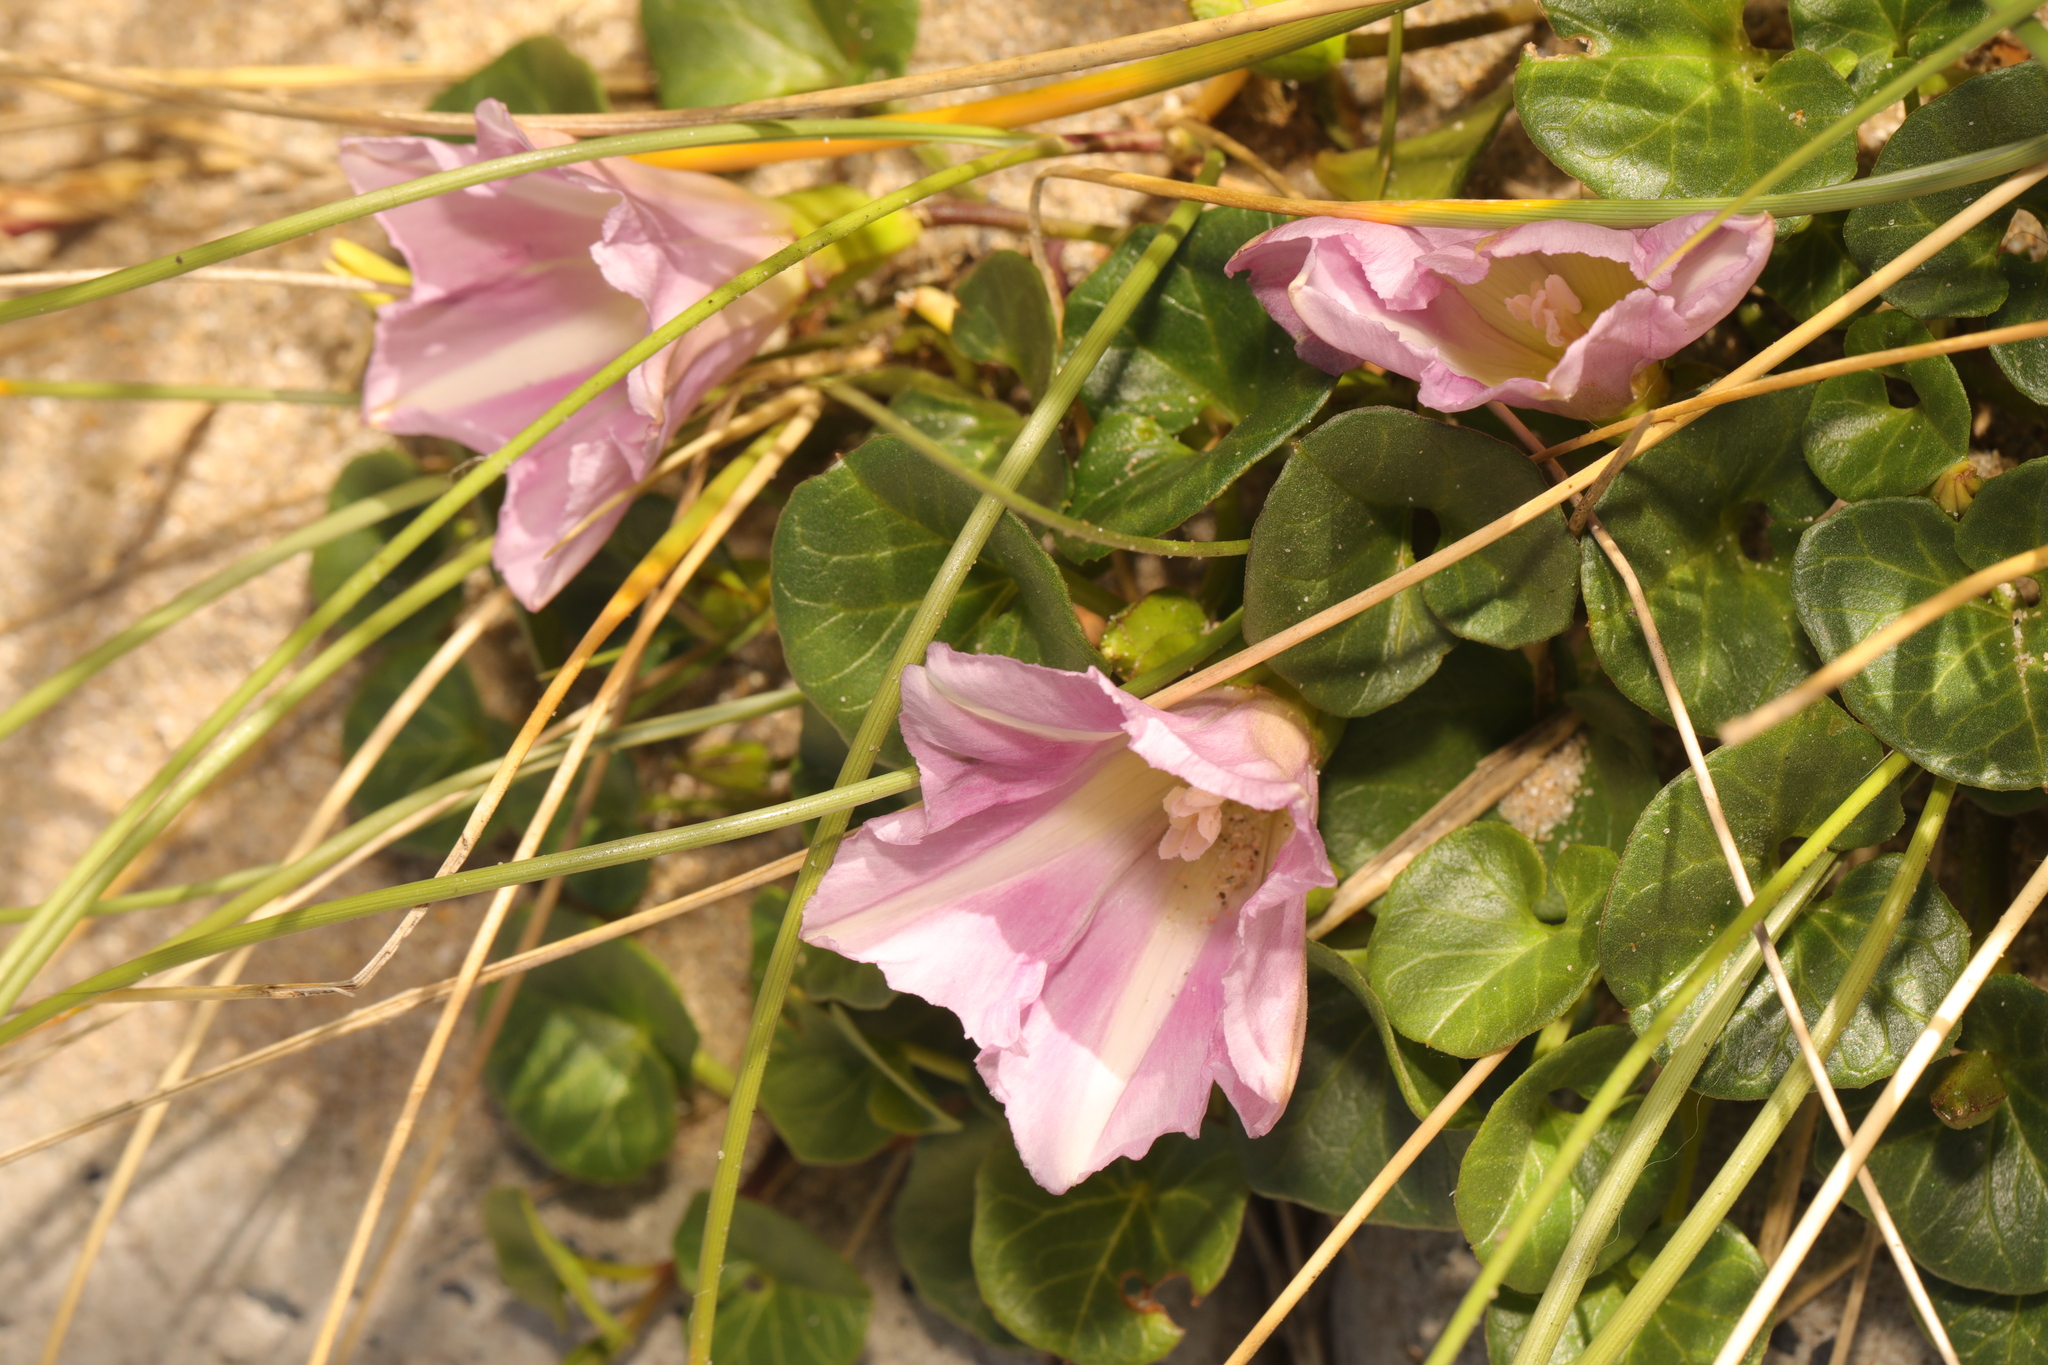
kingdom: Plantae
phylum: Tracheophyta
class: Magnoliopsida
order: Solanales
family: Convolvulaceae
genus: Calystegia
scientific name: Calystegia soldanella
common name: Sea bindweed
